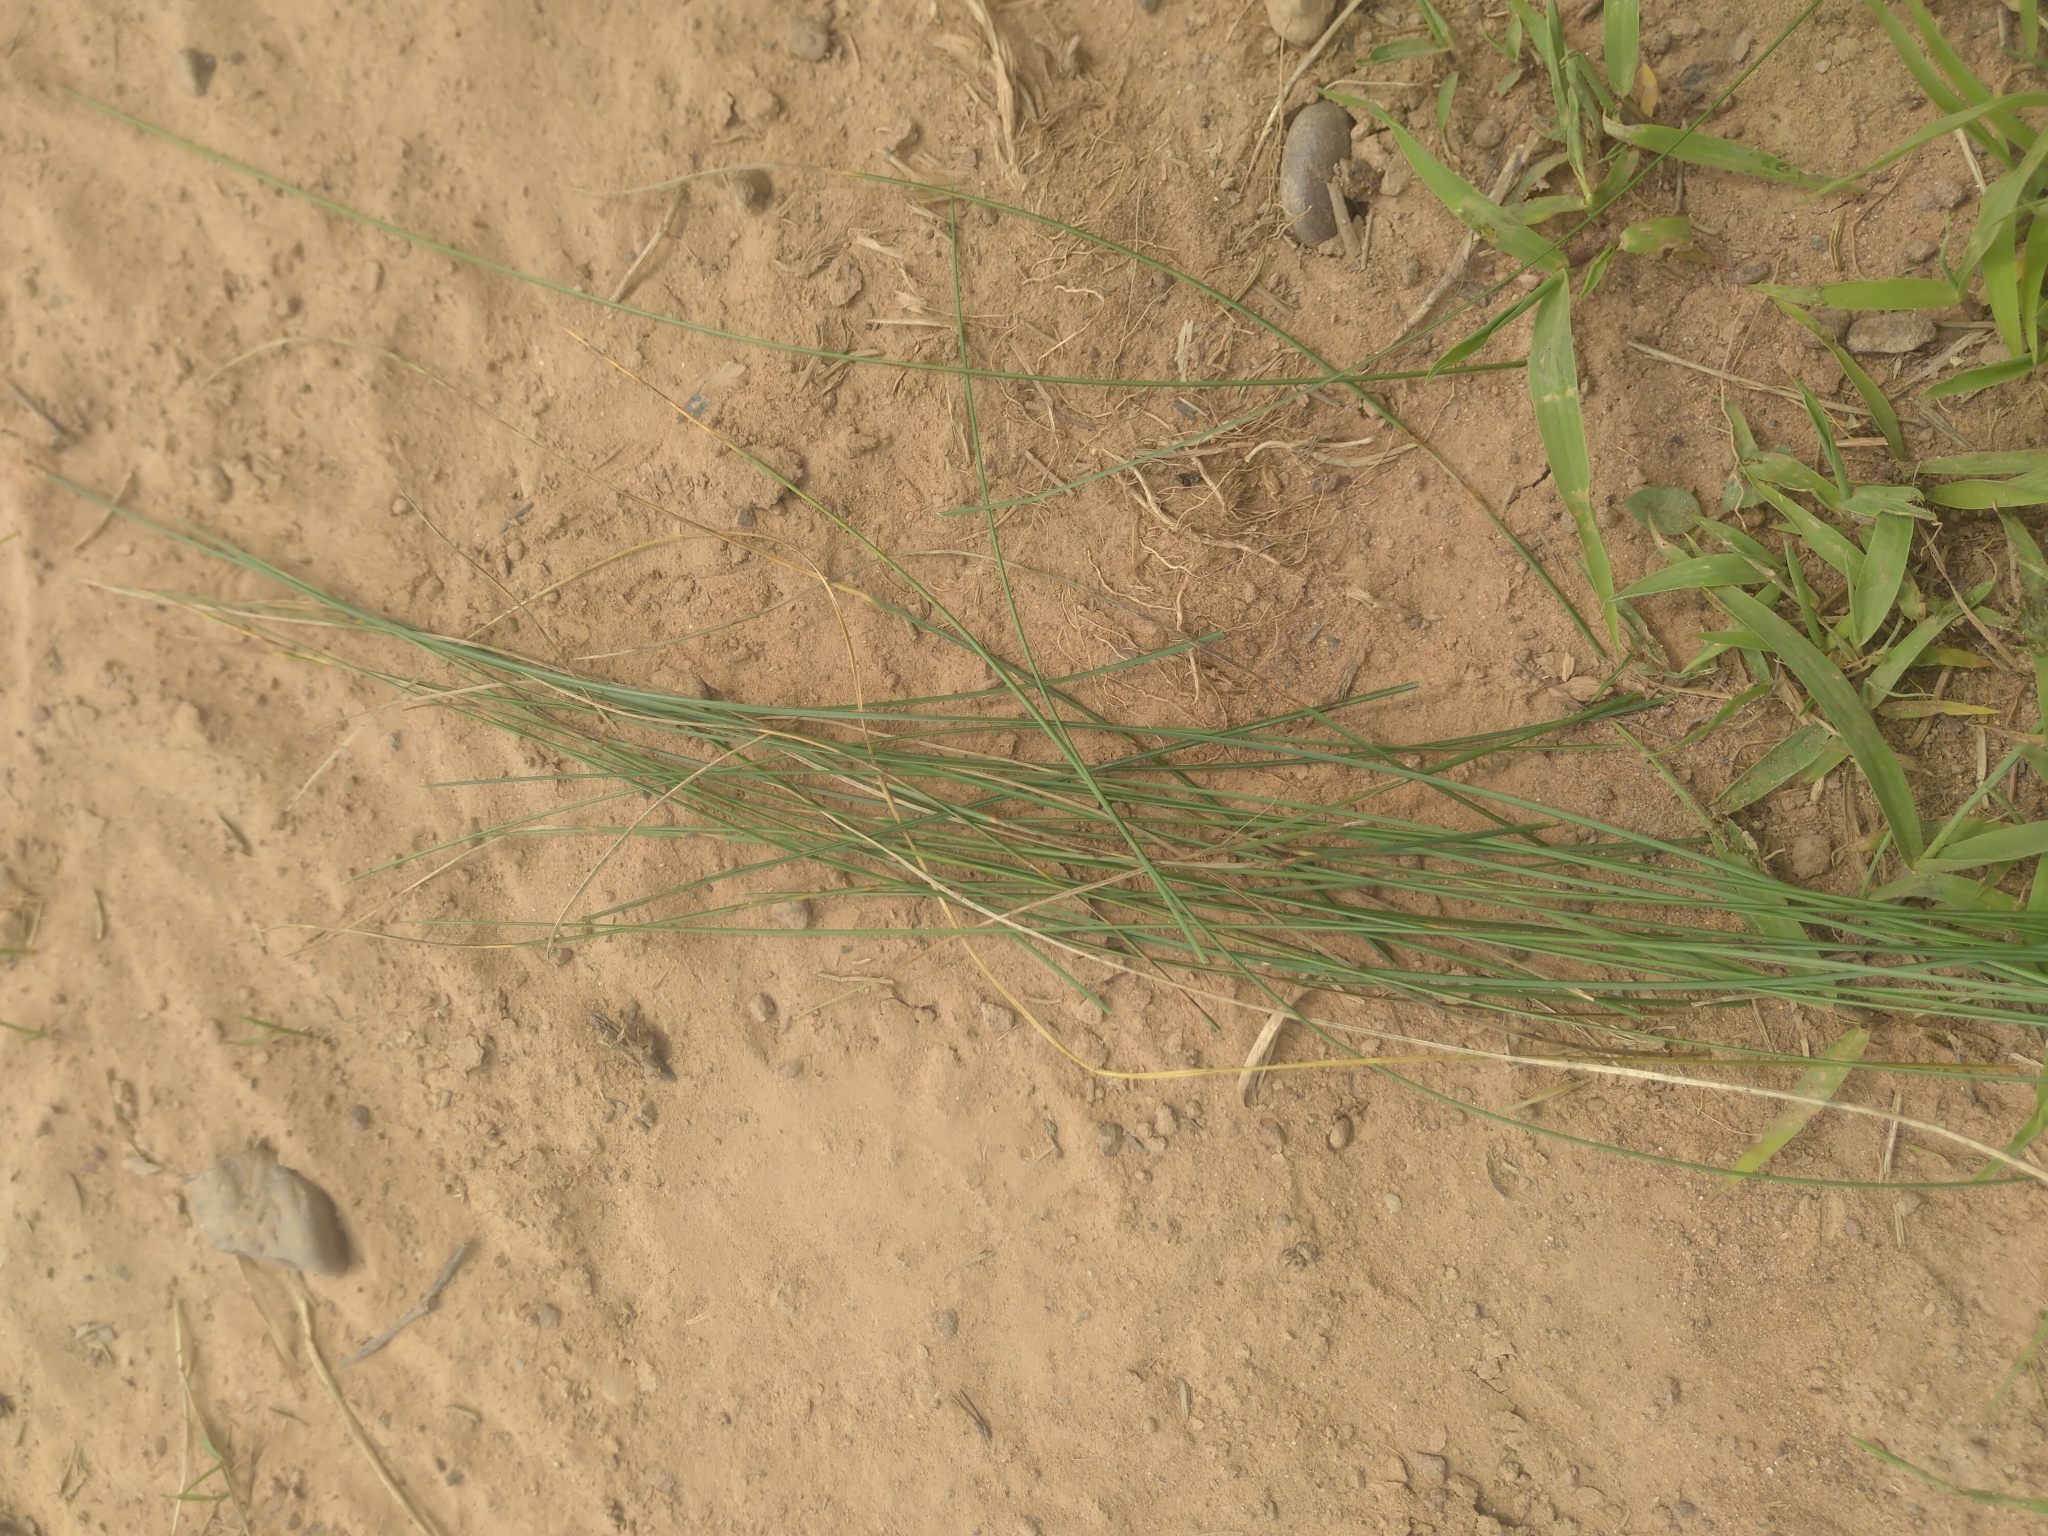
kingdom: Plantae
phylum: Tracheophyta
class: Liliopsida
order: Poales
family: Poaceae
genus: Agrostis
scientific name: Agrostis capillaris
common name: Colonial bentgrass
